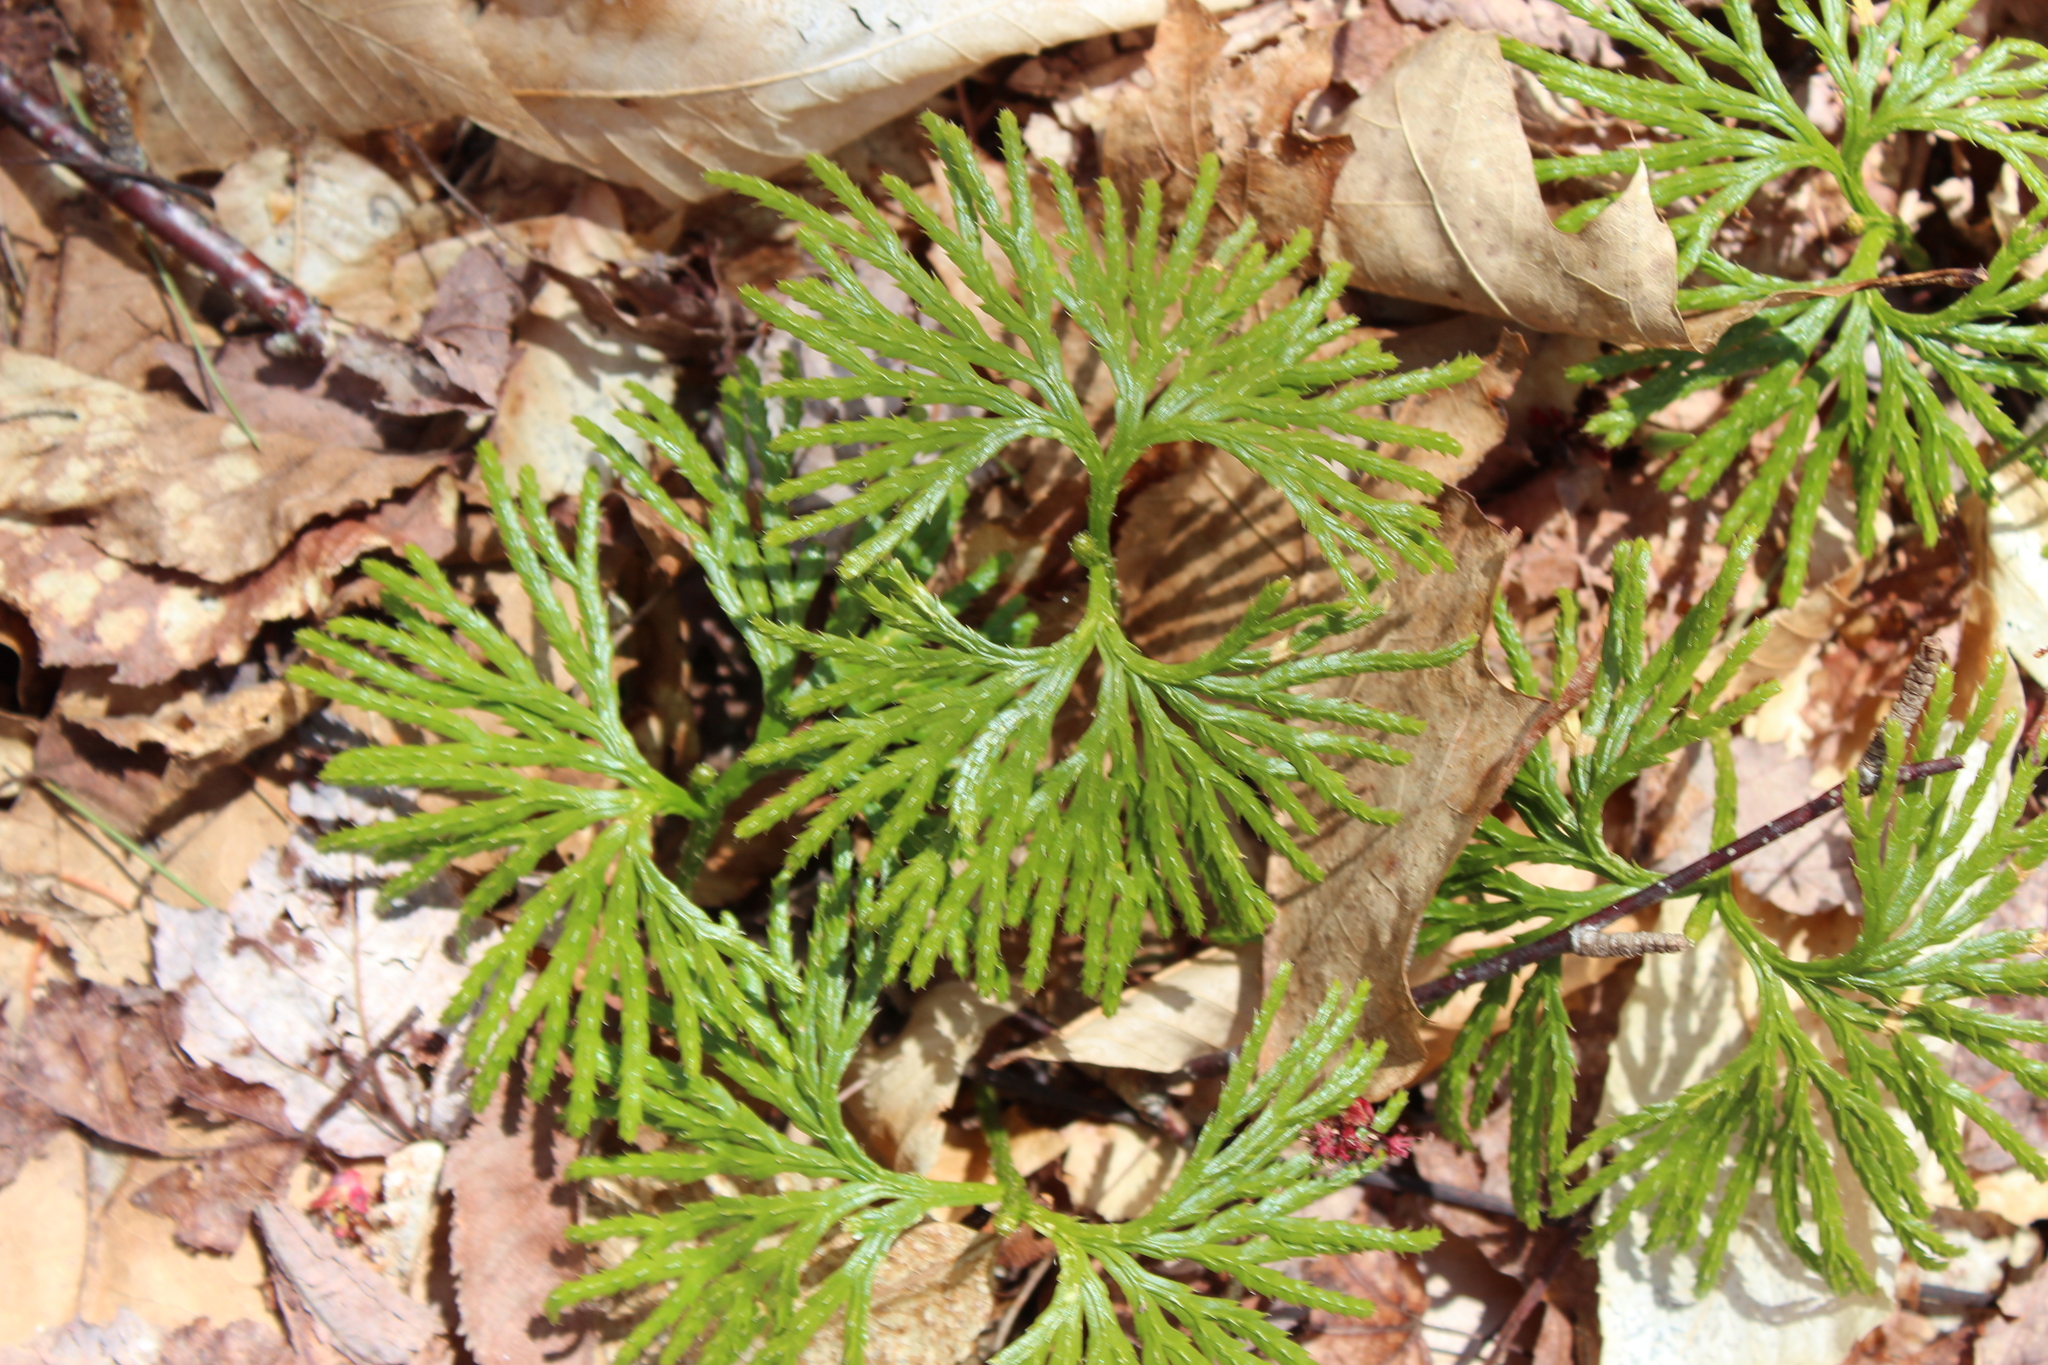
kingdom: Plantae
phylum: Tracheophyta
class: Lycopodiopsida
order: Lycopodiales
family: Lycopodiaceae
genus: Diphasiastrum
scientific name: Diphasiastrum digitatum
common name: Southern running-pine
